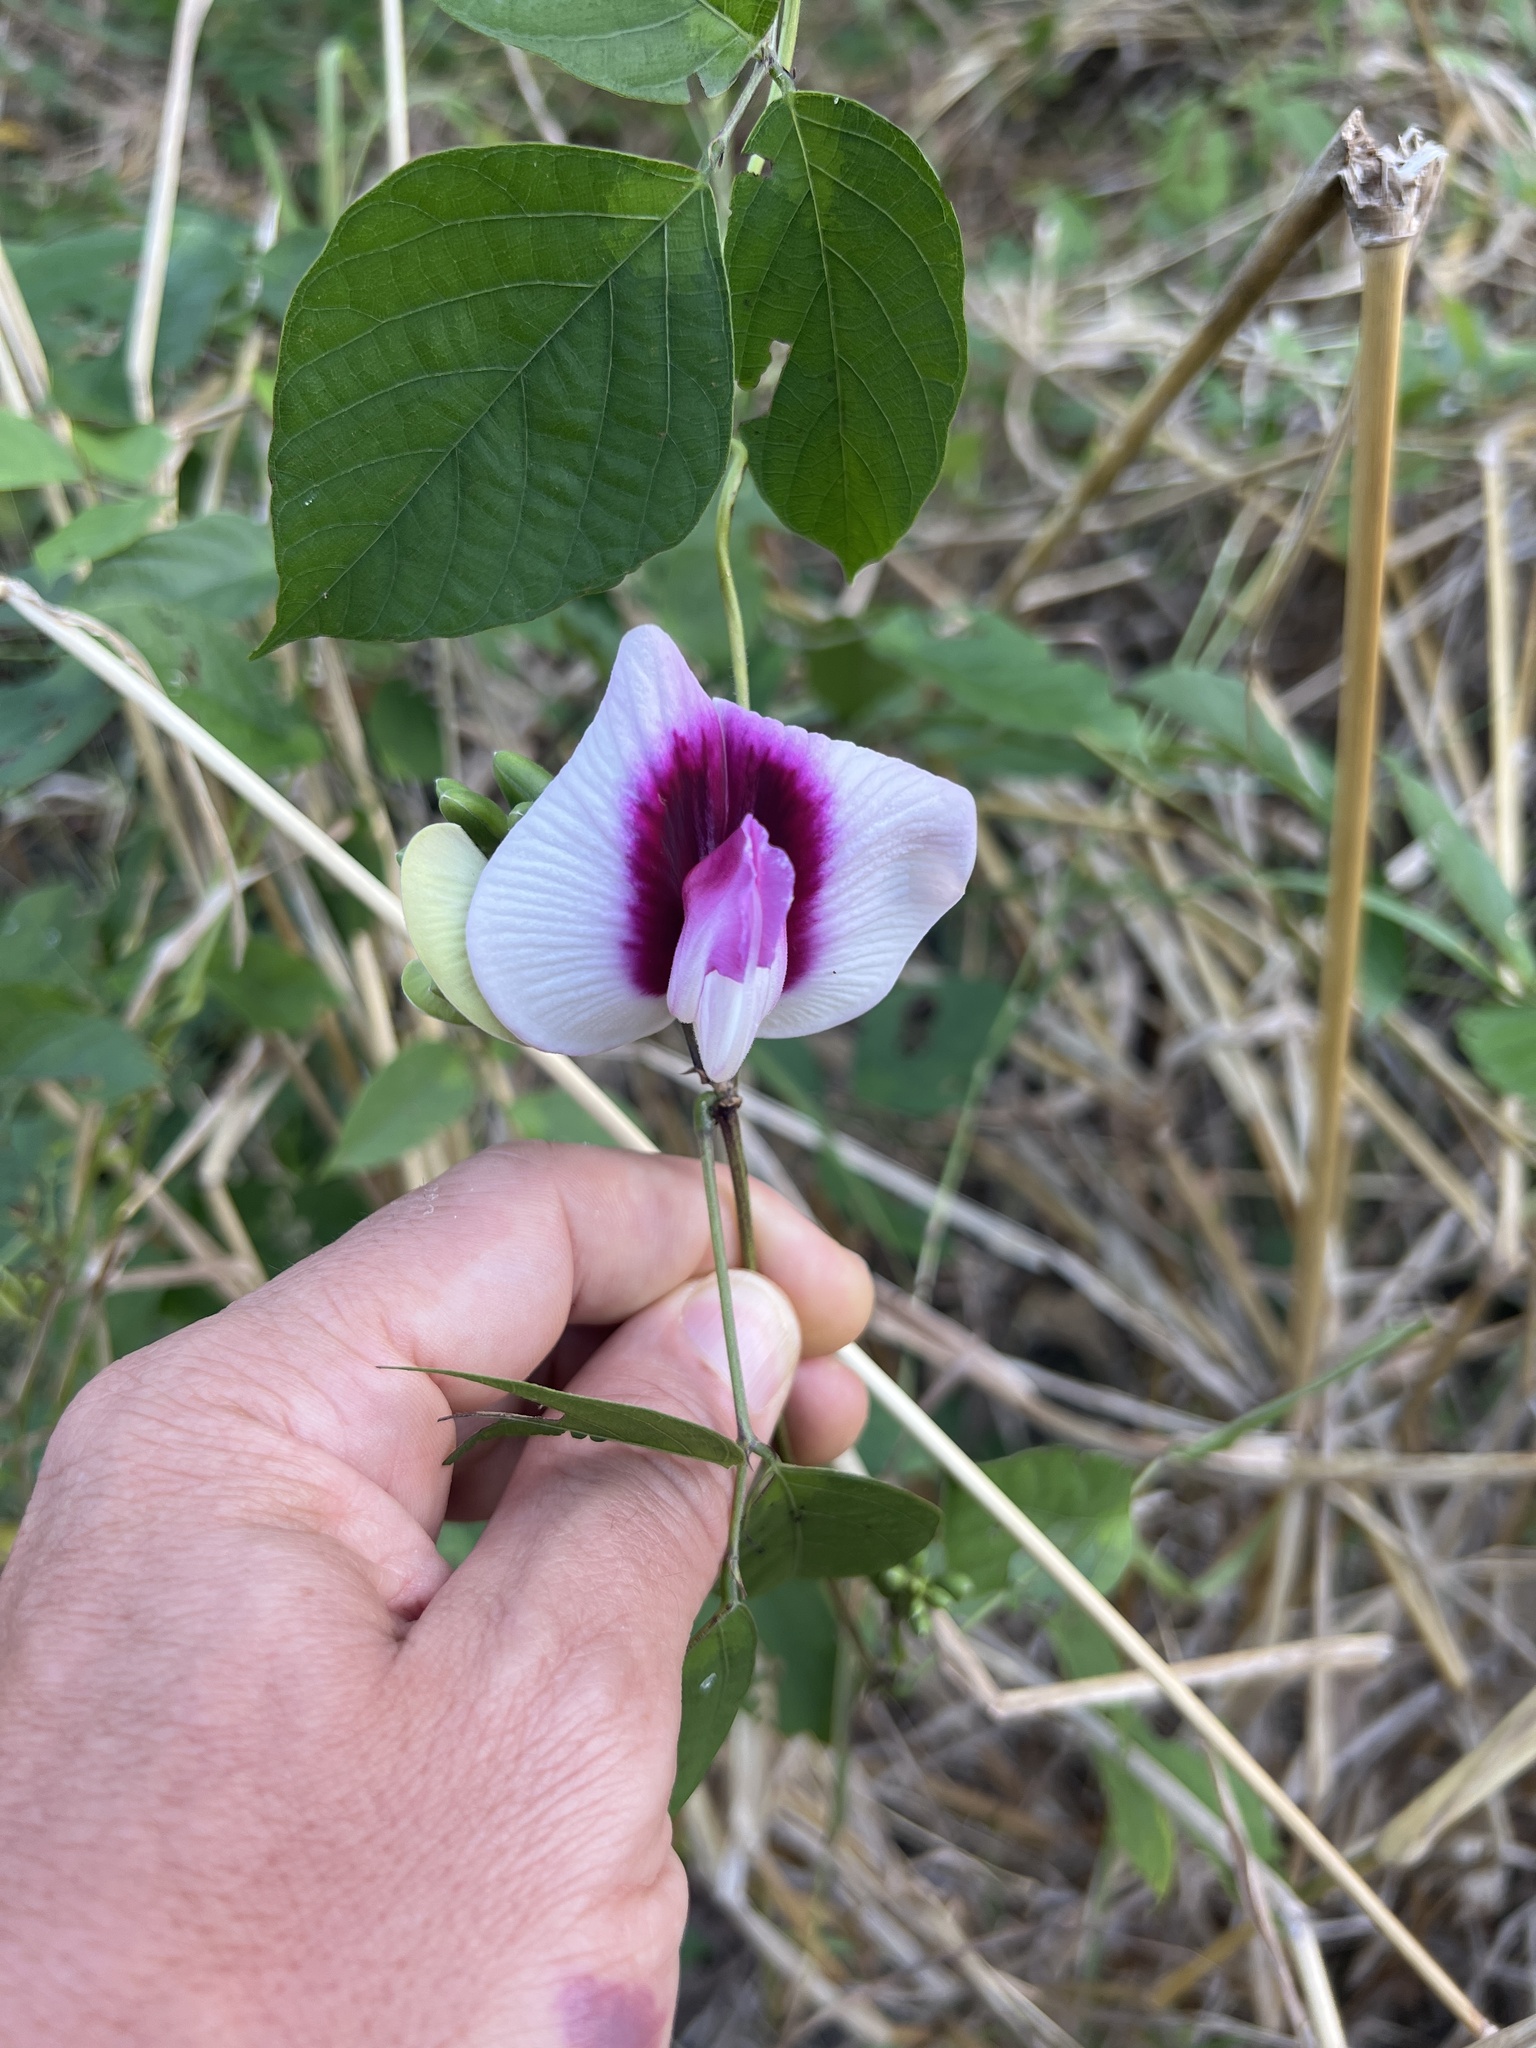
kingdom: Plantae
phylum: Tracheophyta
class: Magnoliopsida
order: Fabales
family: Fabaceae
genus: Centrosema
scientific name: Centrosema plumieri
